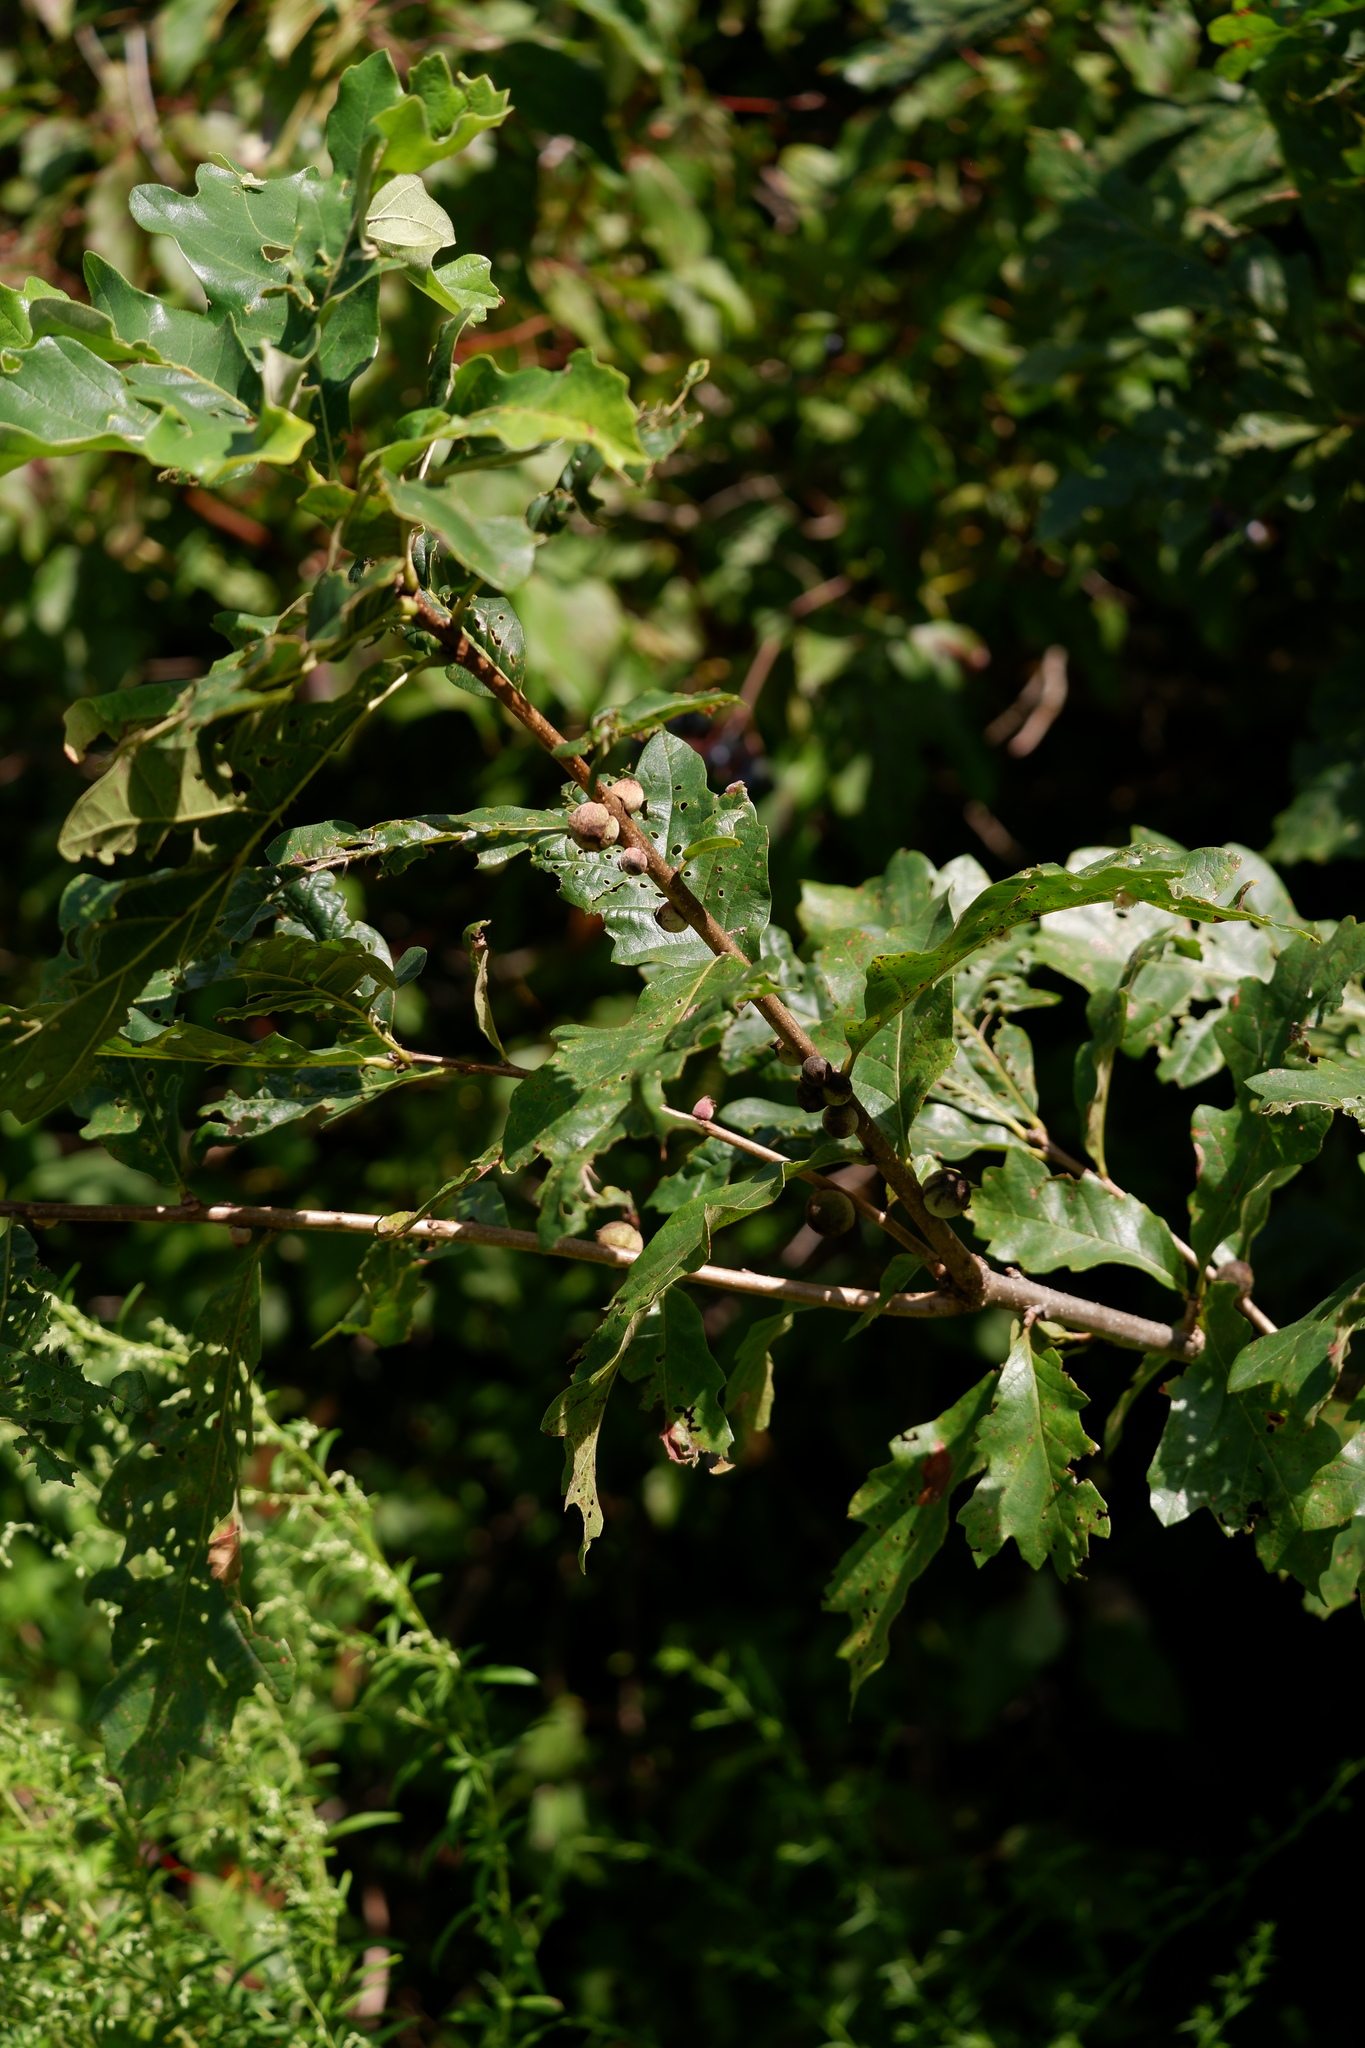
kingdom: Animalia
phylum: Arthropoda
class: Insecta
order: Hymenoptera
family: Cynipidae
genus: Disholcaspis
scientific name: Disholcaspis
